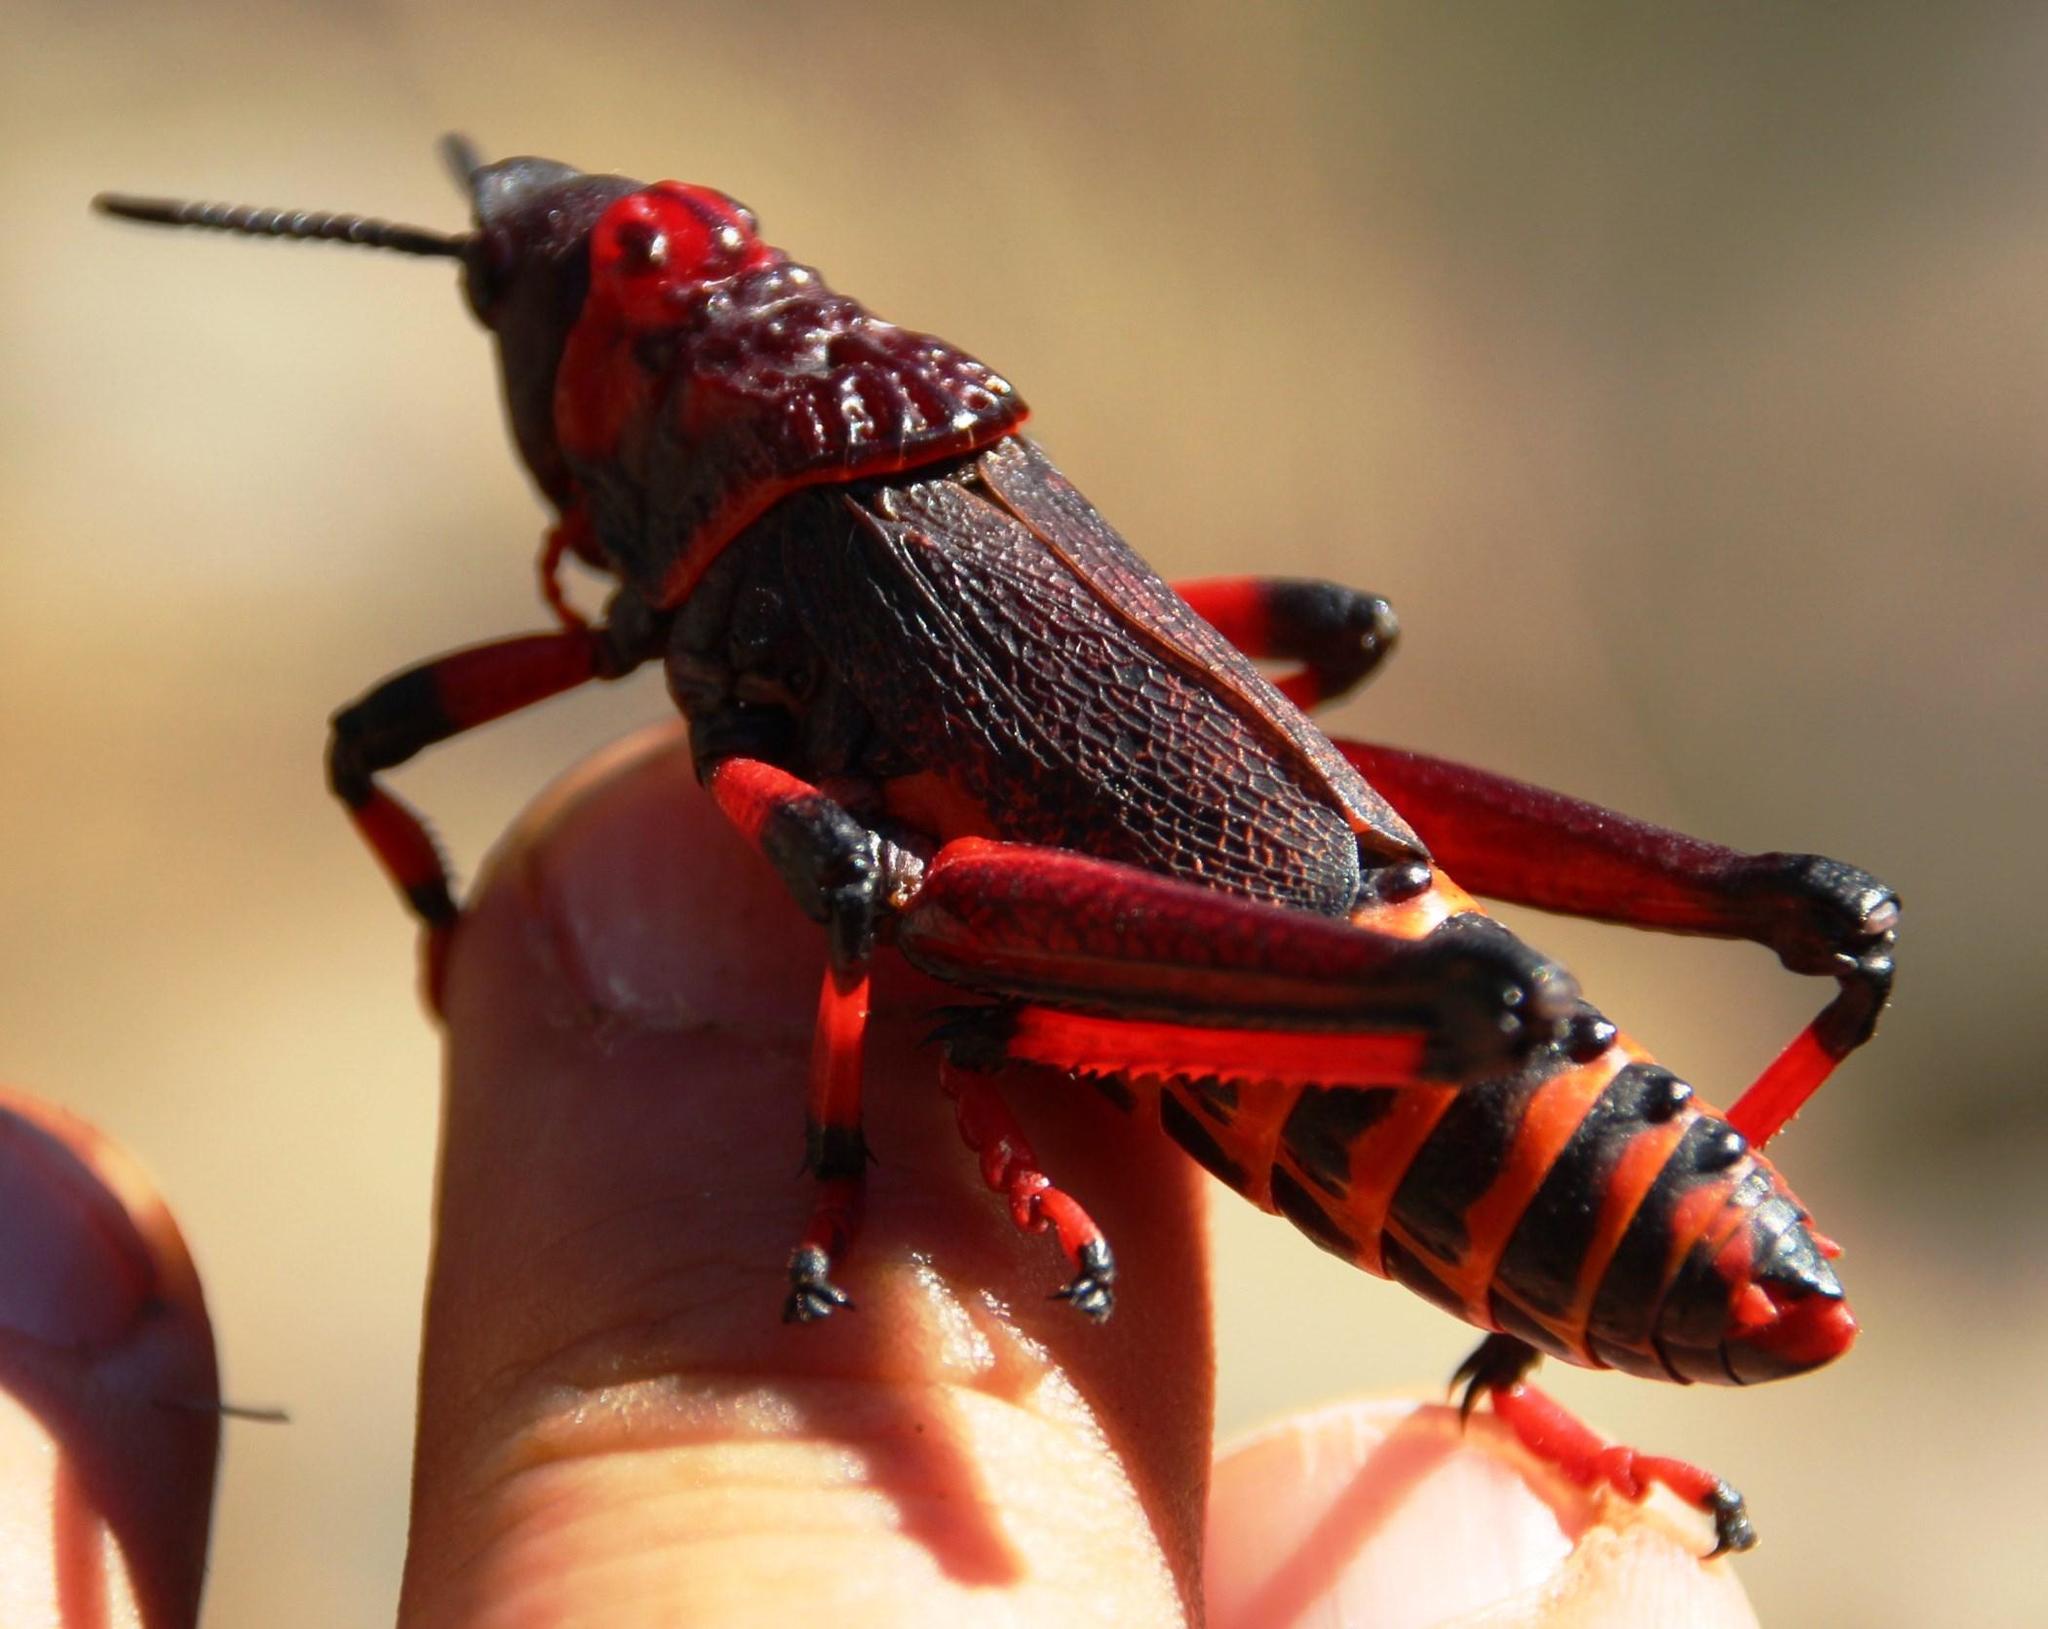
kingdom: Animalia
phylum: Arthropoda
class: Insecta
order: Orthoptera
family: Pyrgomorphidae
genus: Dictyophorus
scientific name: Dictyophorus spumans
